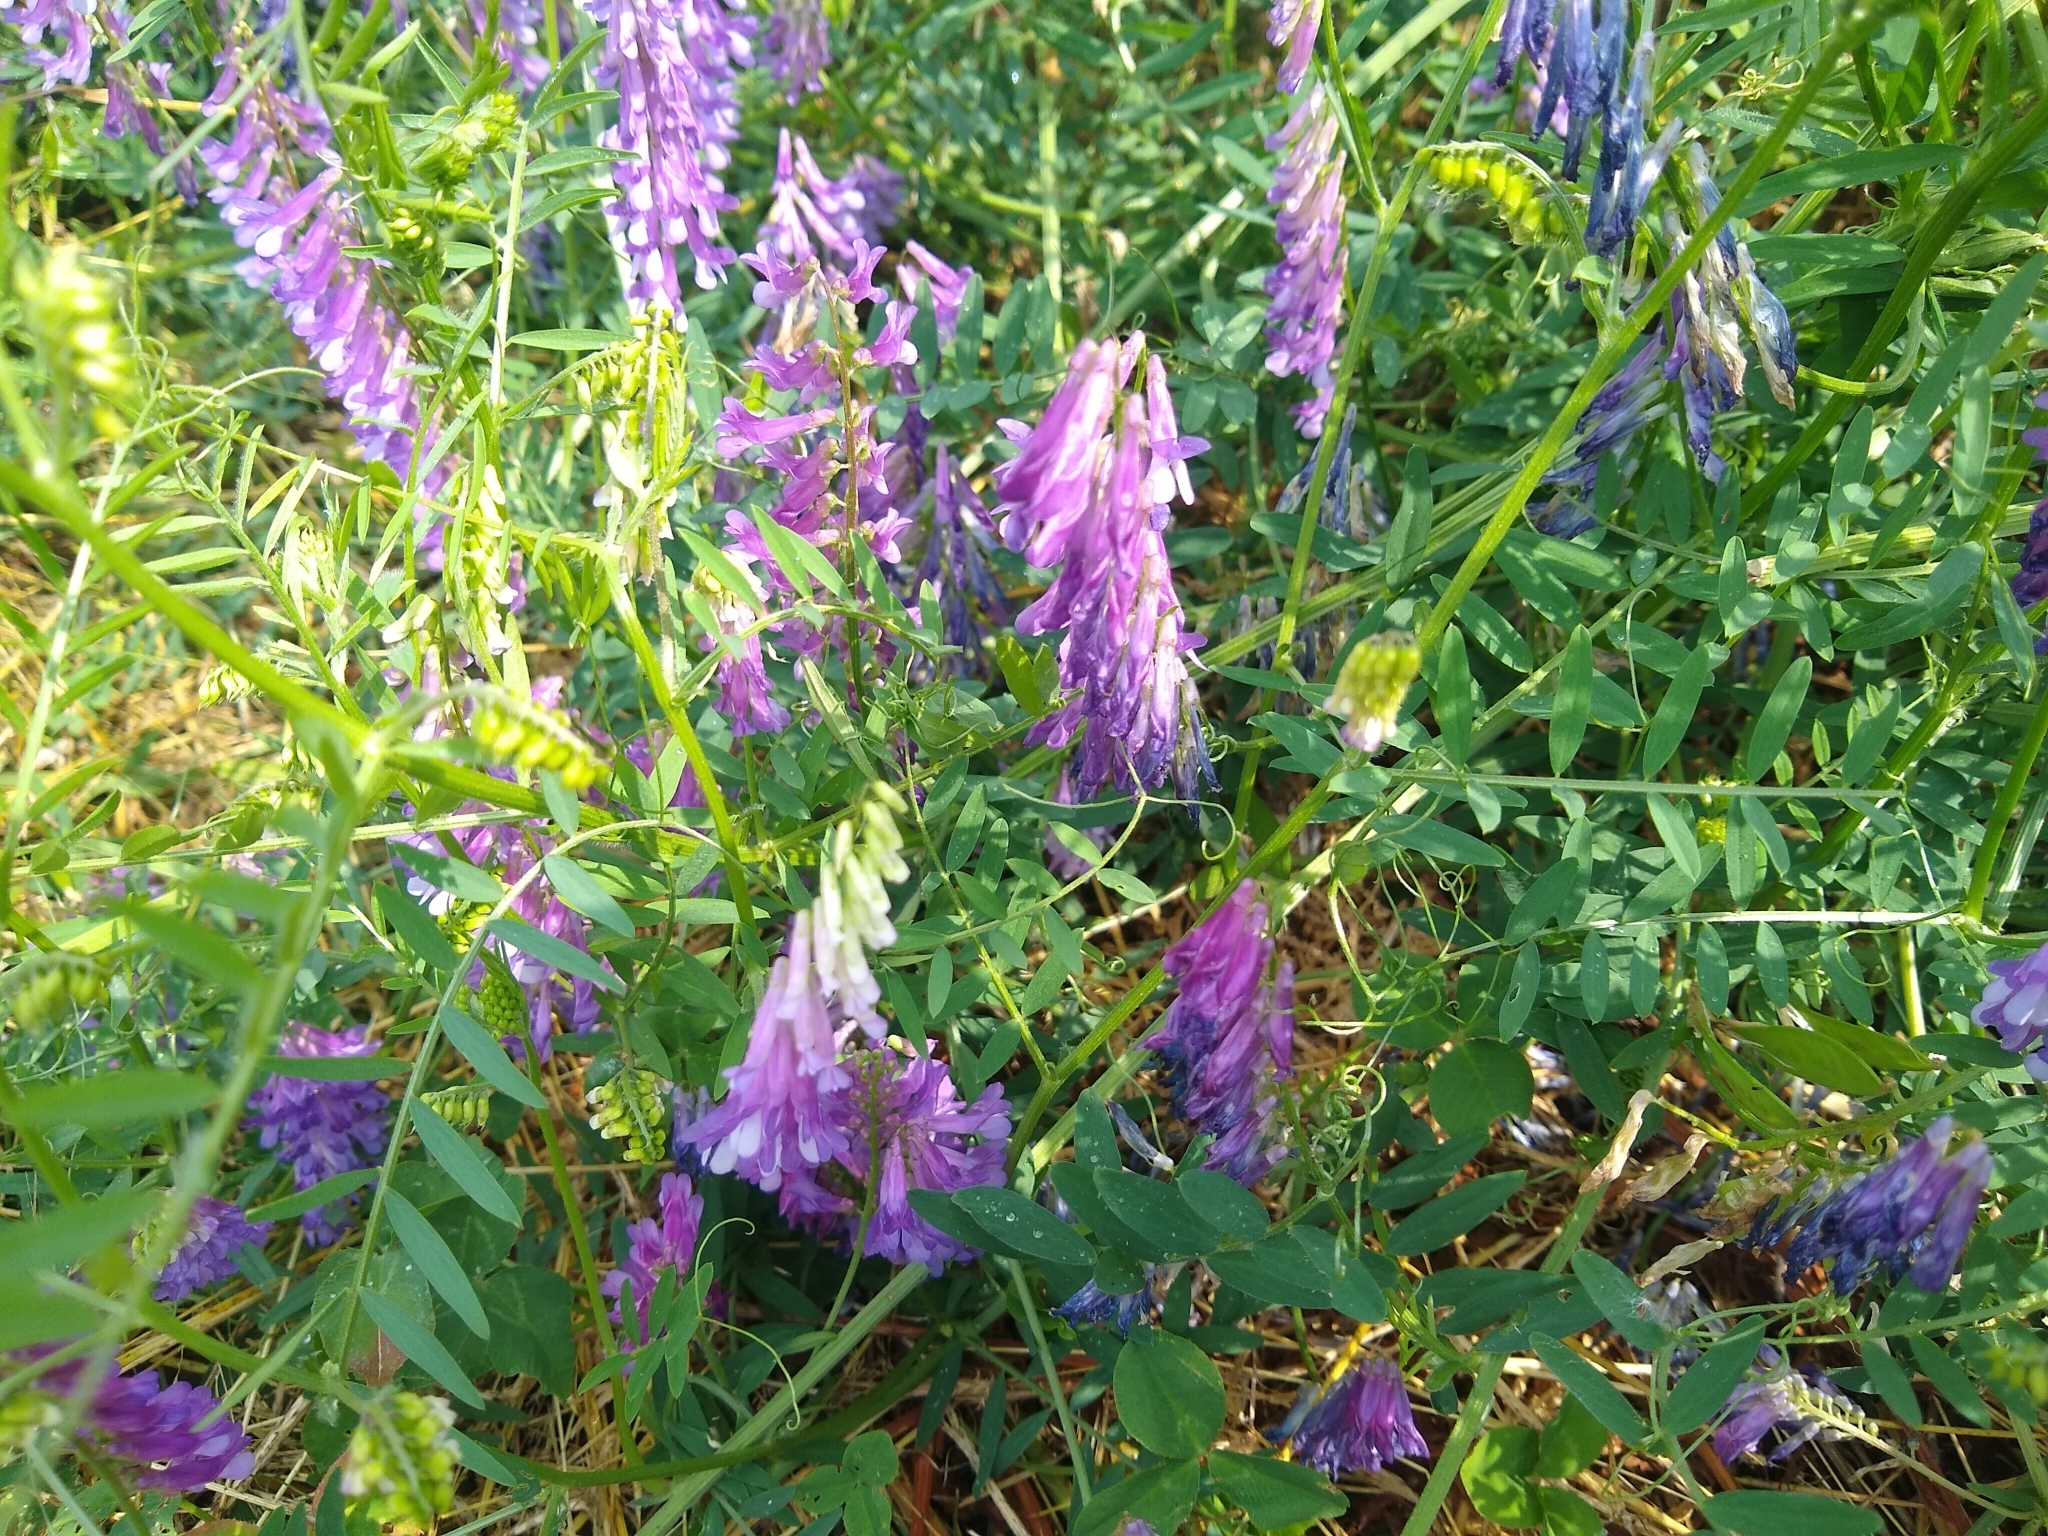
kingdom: Plantae
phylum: Tracheophyta
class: Magnoliopsida
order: Fabales
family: Fabaceae
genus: Vicia
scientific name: Vicia villosa
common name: Fodder vetch
